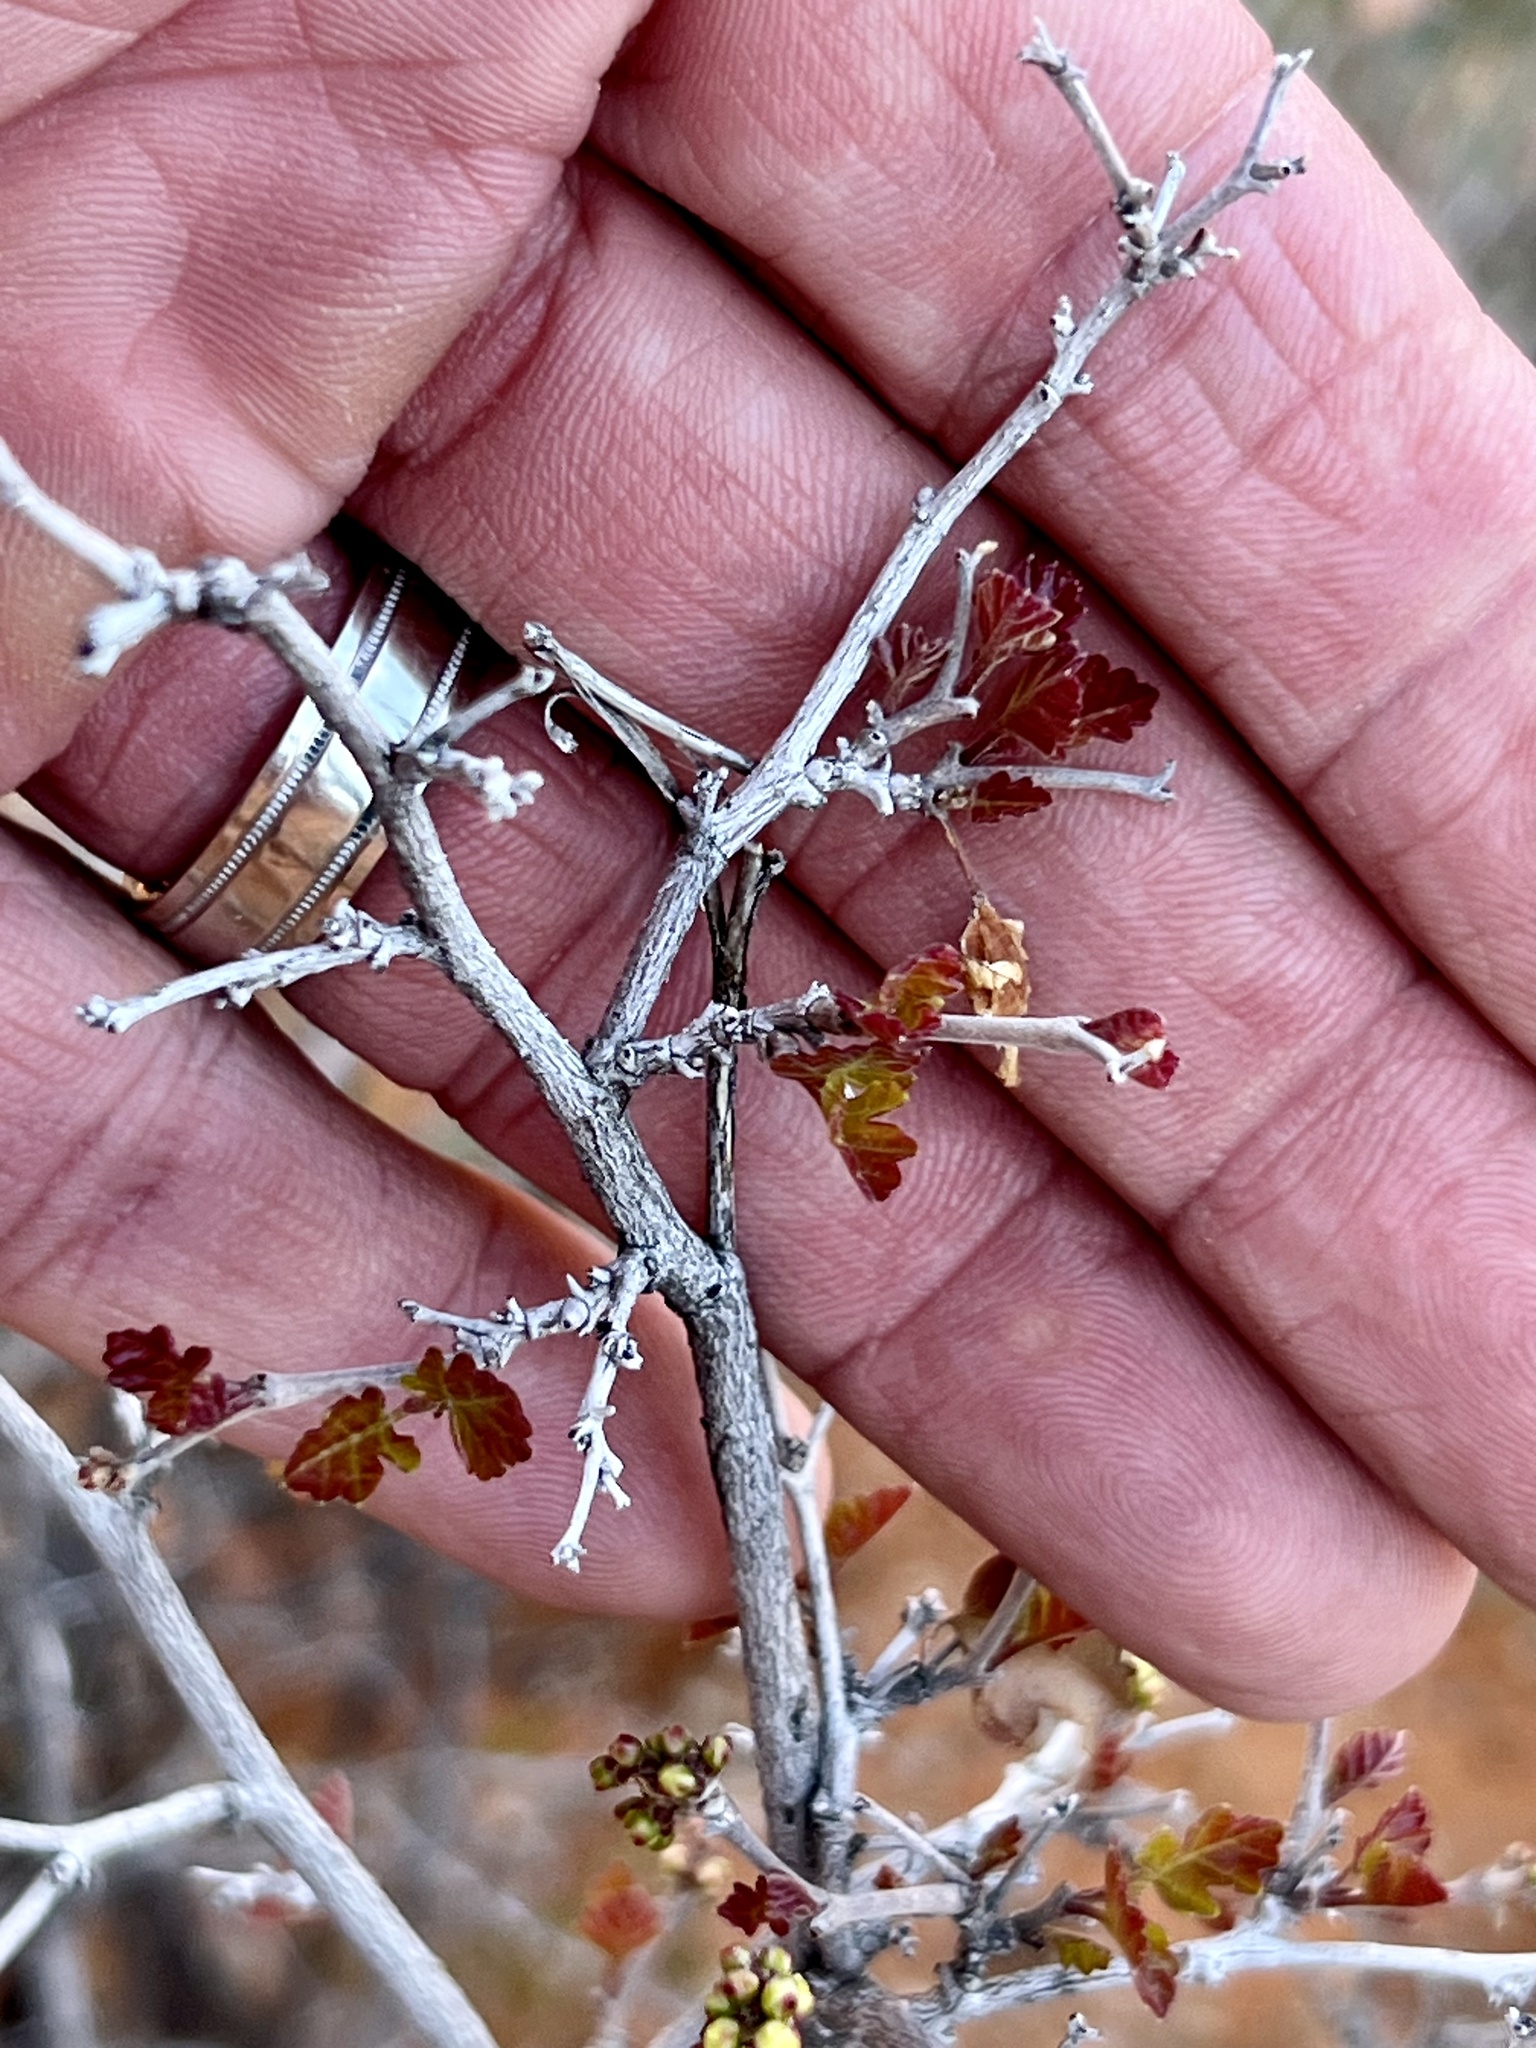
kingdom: Plantae
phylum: Tracheophyta
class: Magnoliopsida
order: Sapindales
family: Anacardiaceae
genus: Rhus
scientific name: Rhus aromatica
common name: Aromatic sumac
